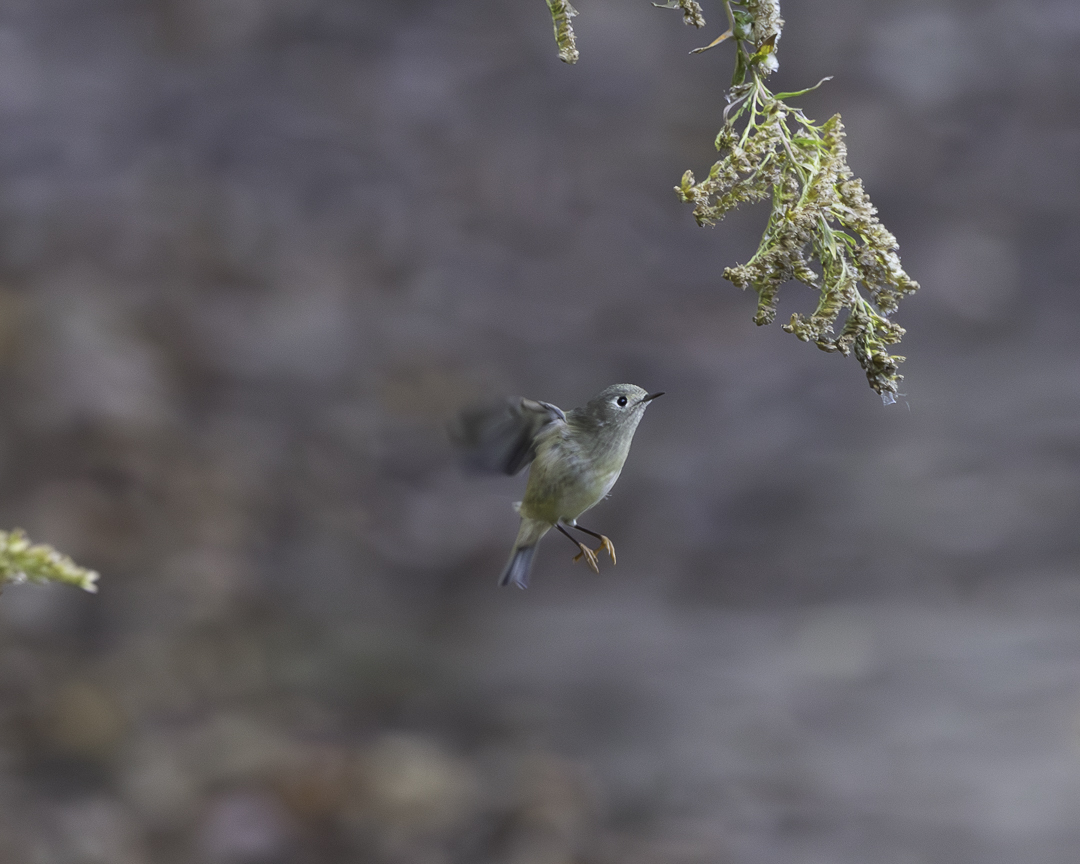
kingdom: Animalia
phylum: Chordata
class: Aves
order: Passeriformes
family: Regulidae
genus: Regulus
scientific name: Regulus calendula
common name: Ruby-crowned kinglet
